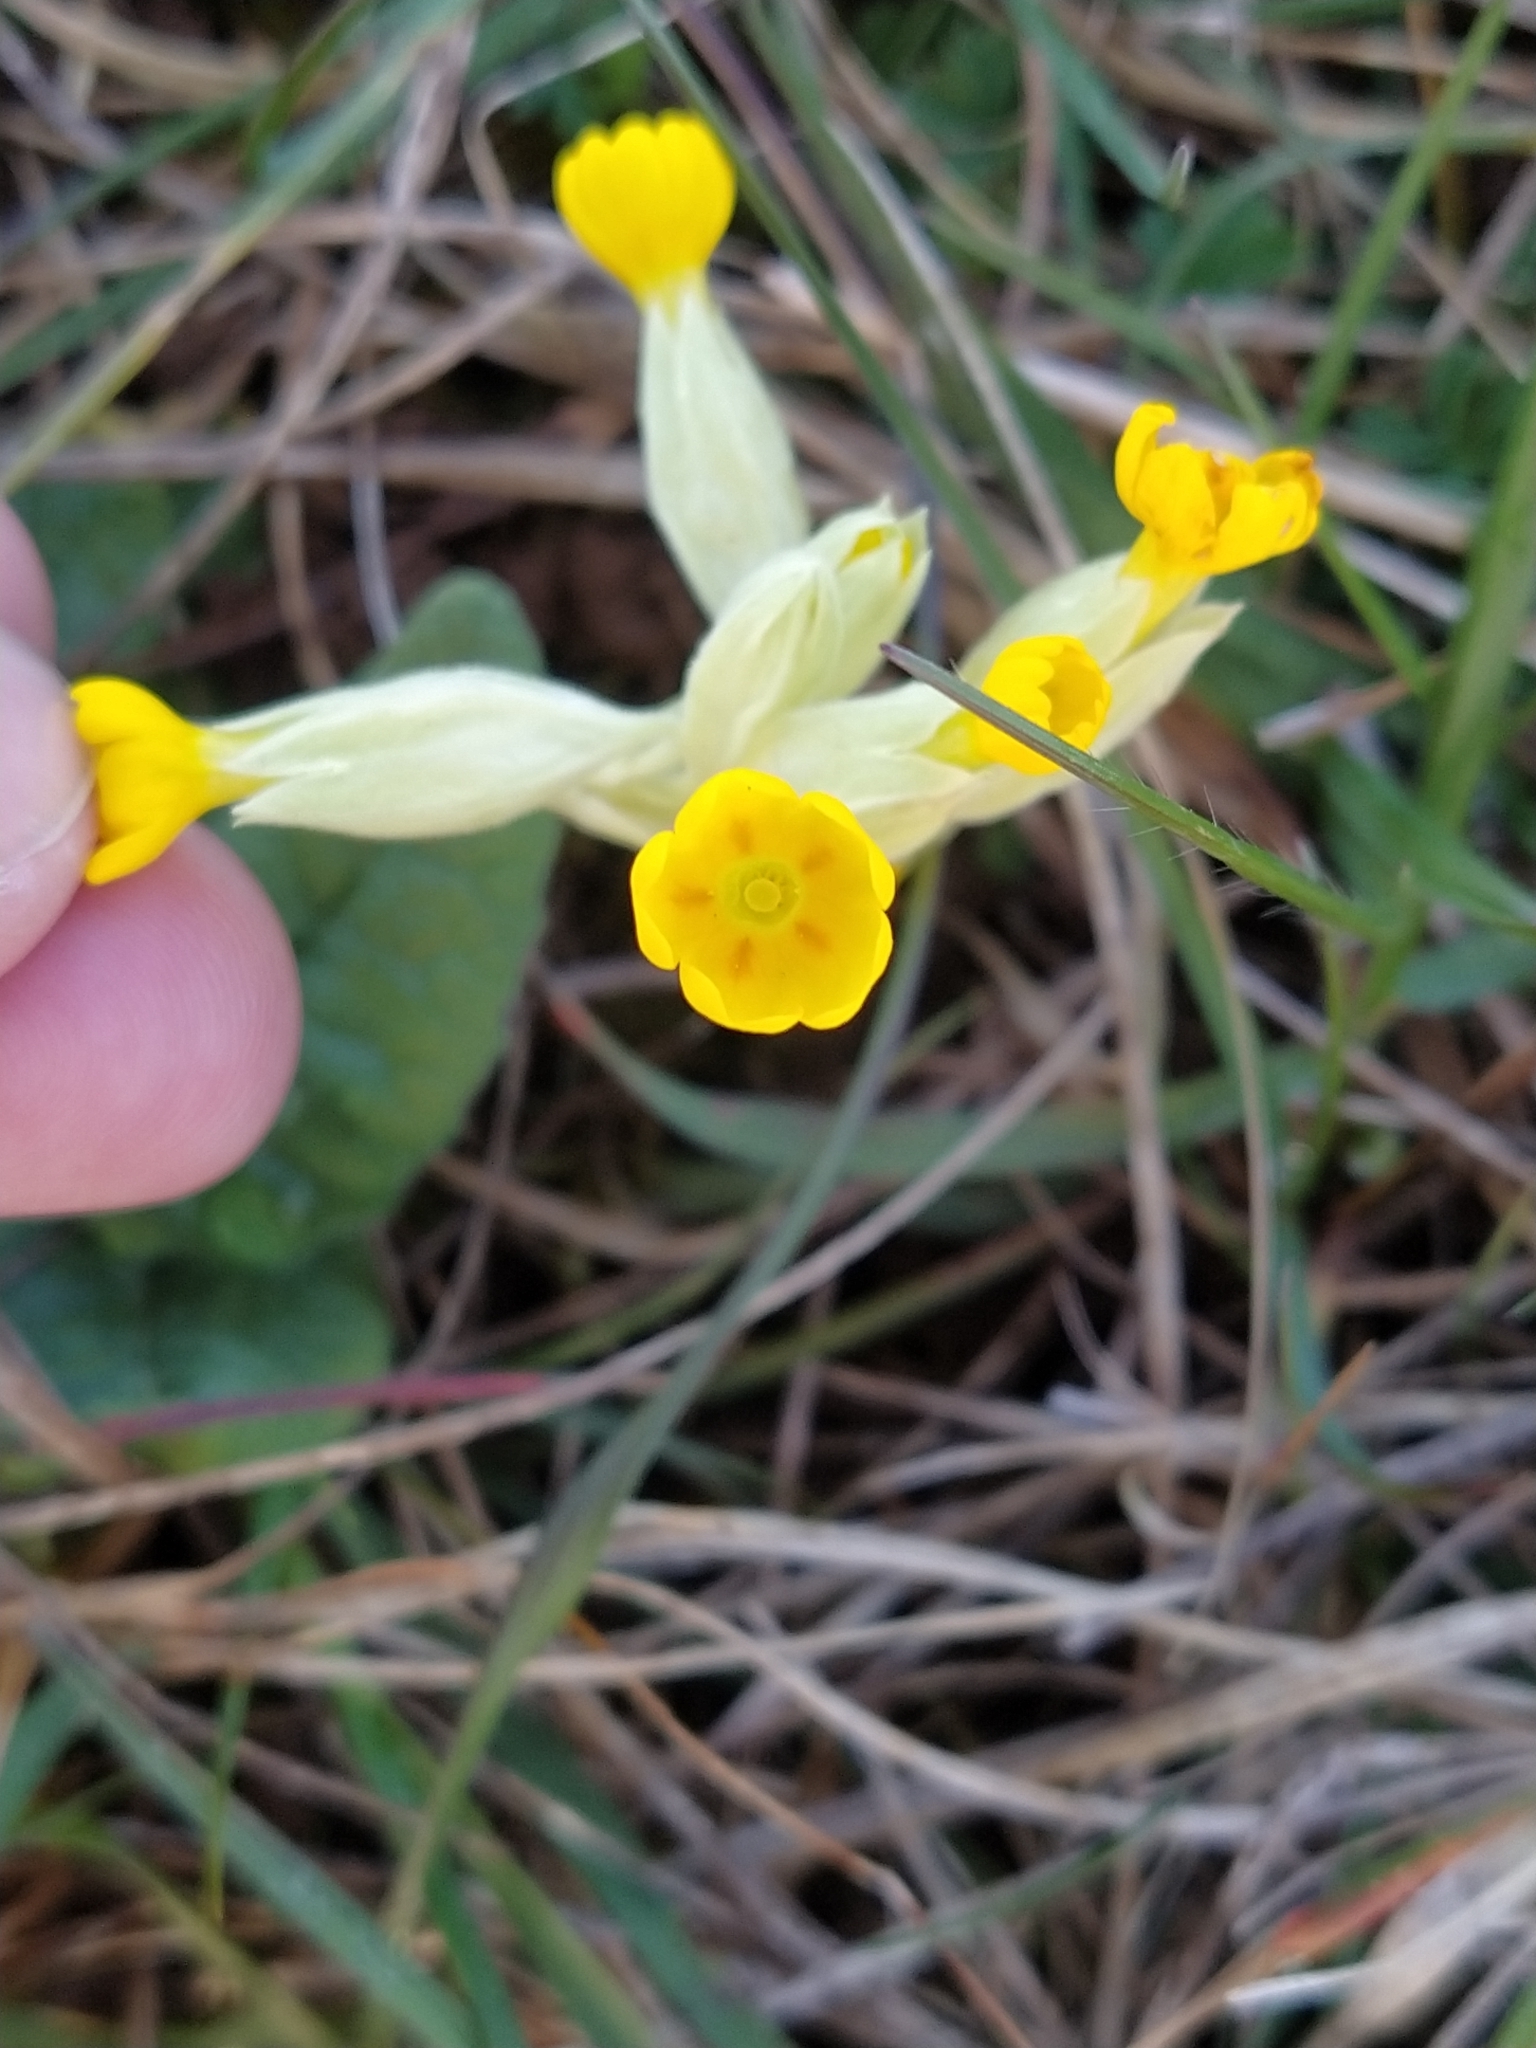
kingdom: Plantae
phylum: Tracheophyta
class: Magnoliopsida
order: Ericales
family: Primulaceae
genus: Primula
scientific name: Primula veris
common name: Cowslip
